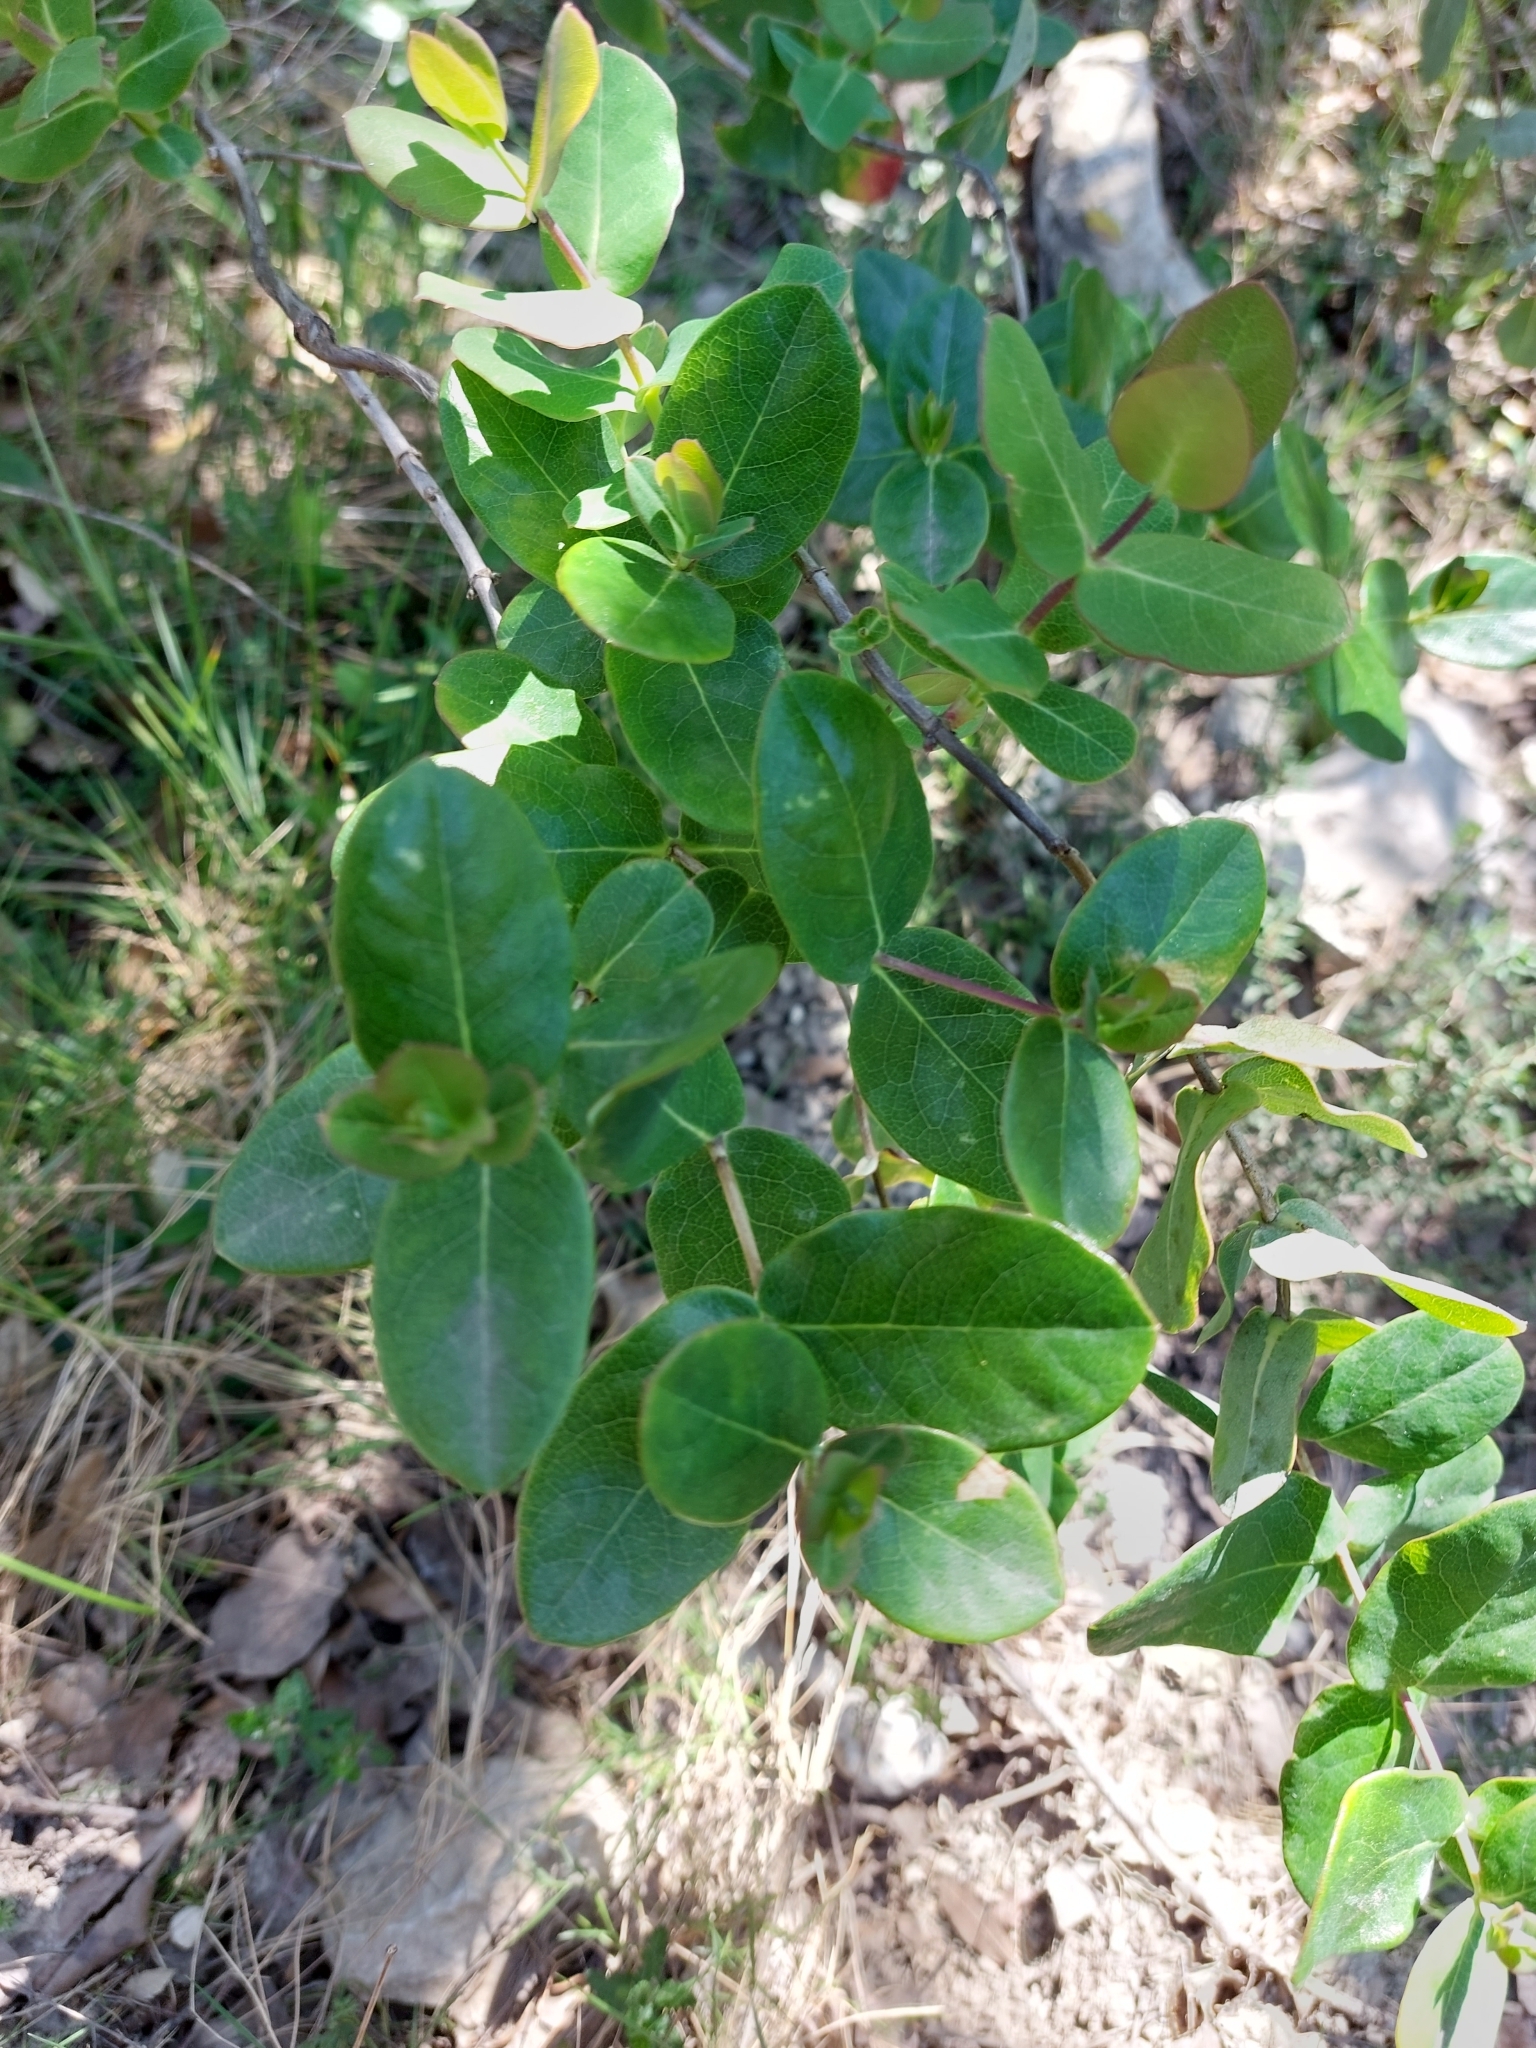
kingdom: Plantae
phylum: Tracheophyta
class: Magnoliopsida
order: Dipsacales
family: Caprifoliaceae
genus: Lonicera
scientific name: Lonicera implexa
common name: Minorca honeysuckle
